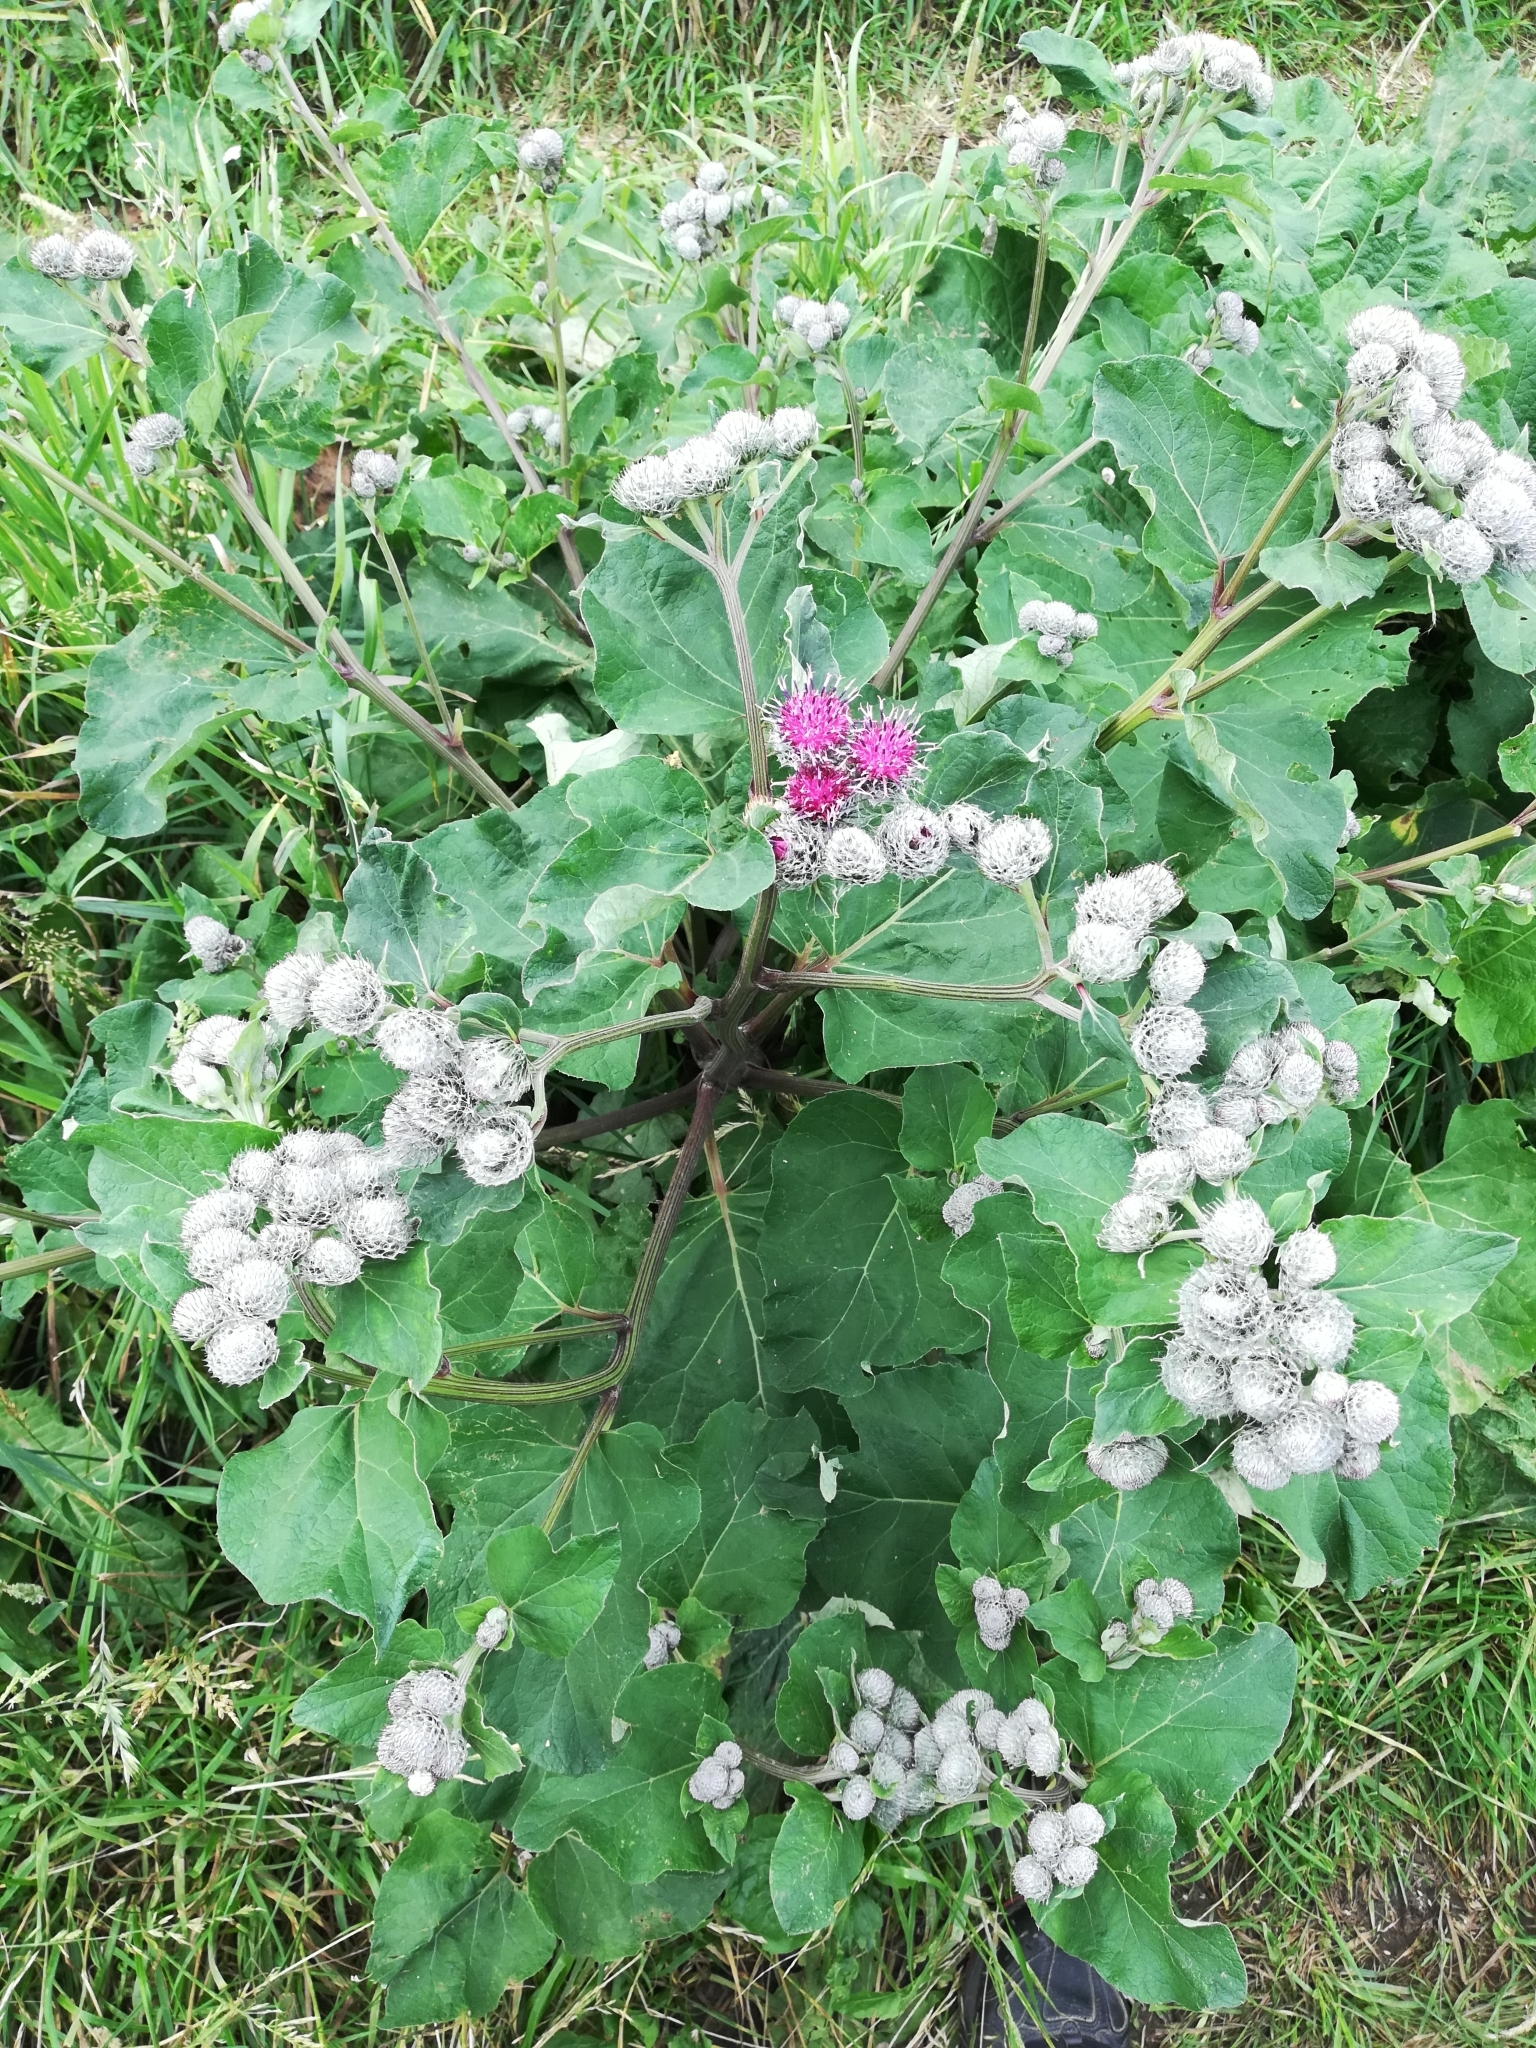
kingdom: Plantae
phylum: Tracheophyta
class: Magnoliopsida
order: Asterales
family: Asteraceae
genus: Arctium
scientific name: Arctium tomentosum
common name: Woolly burdock
